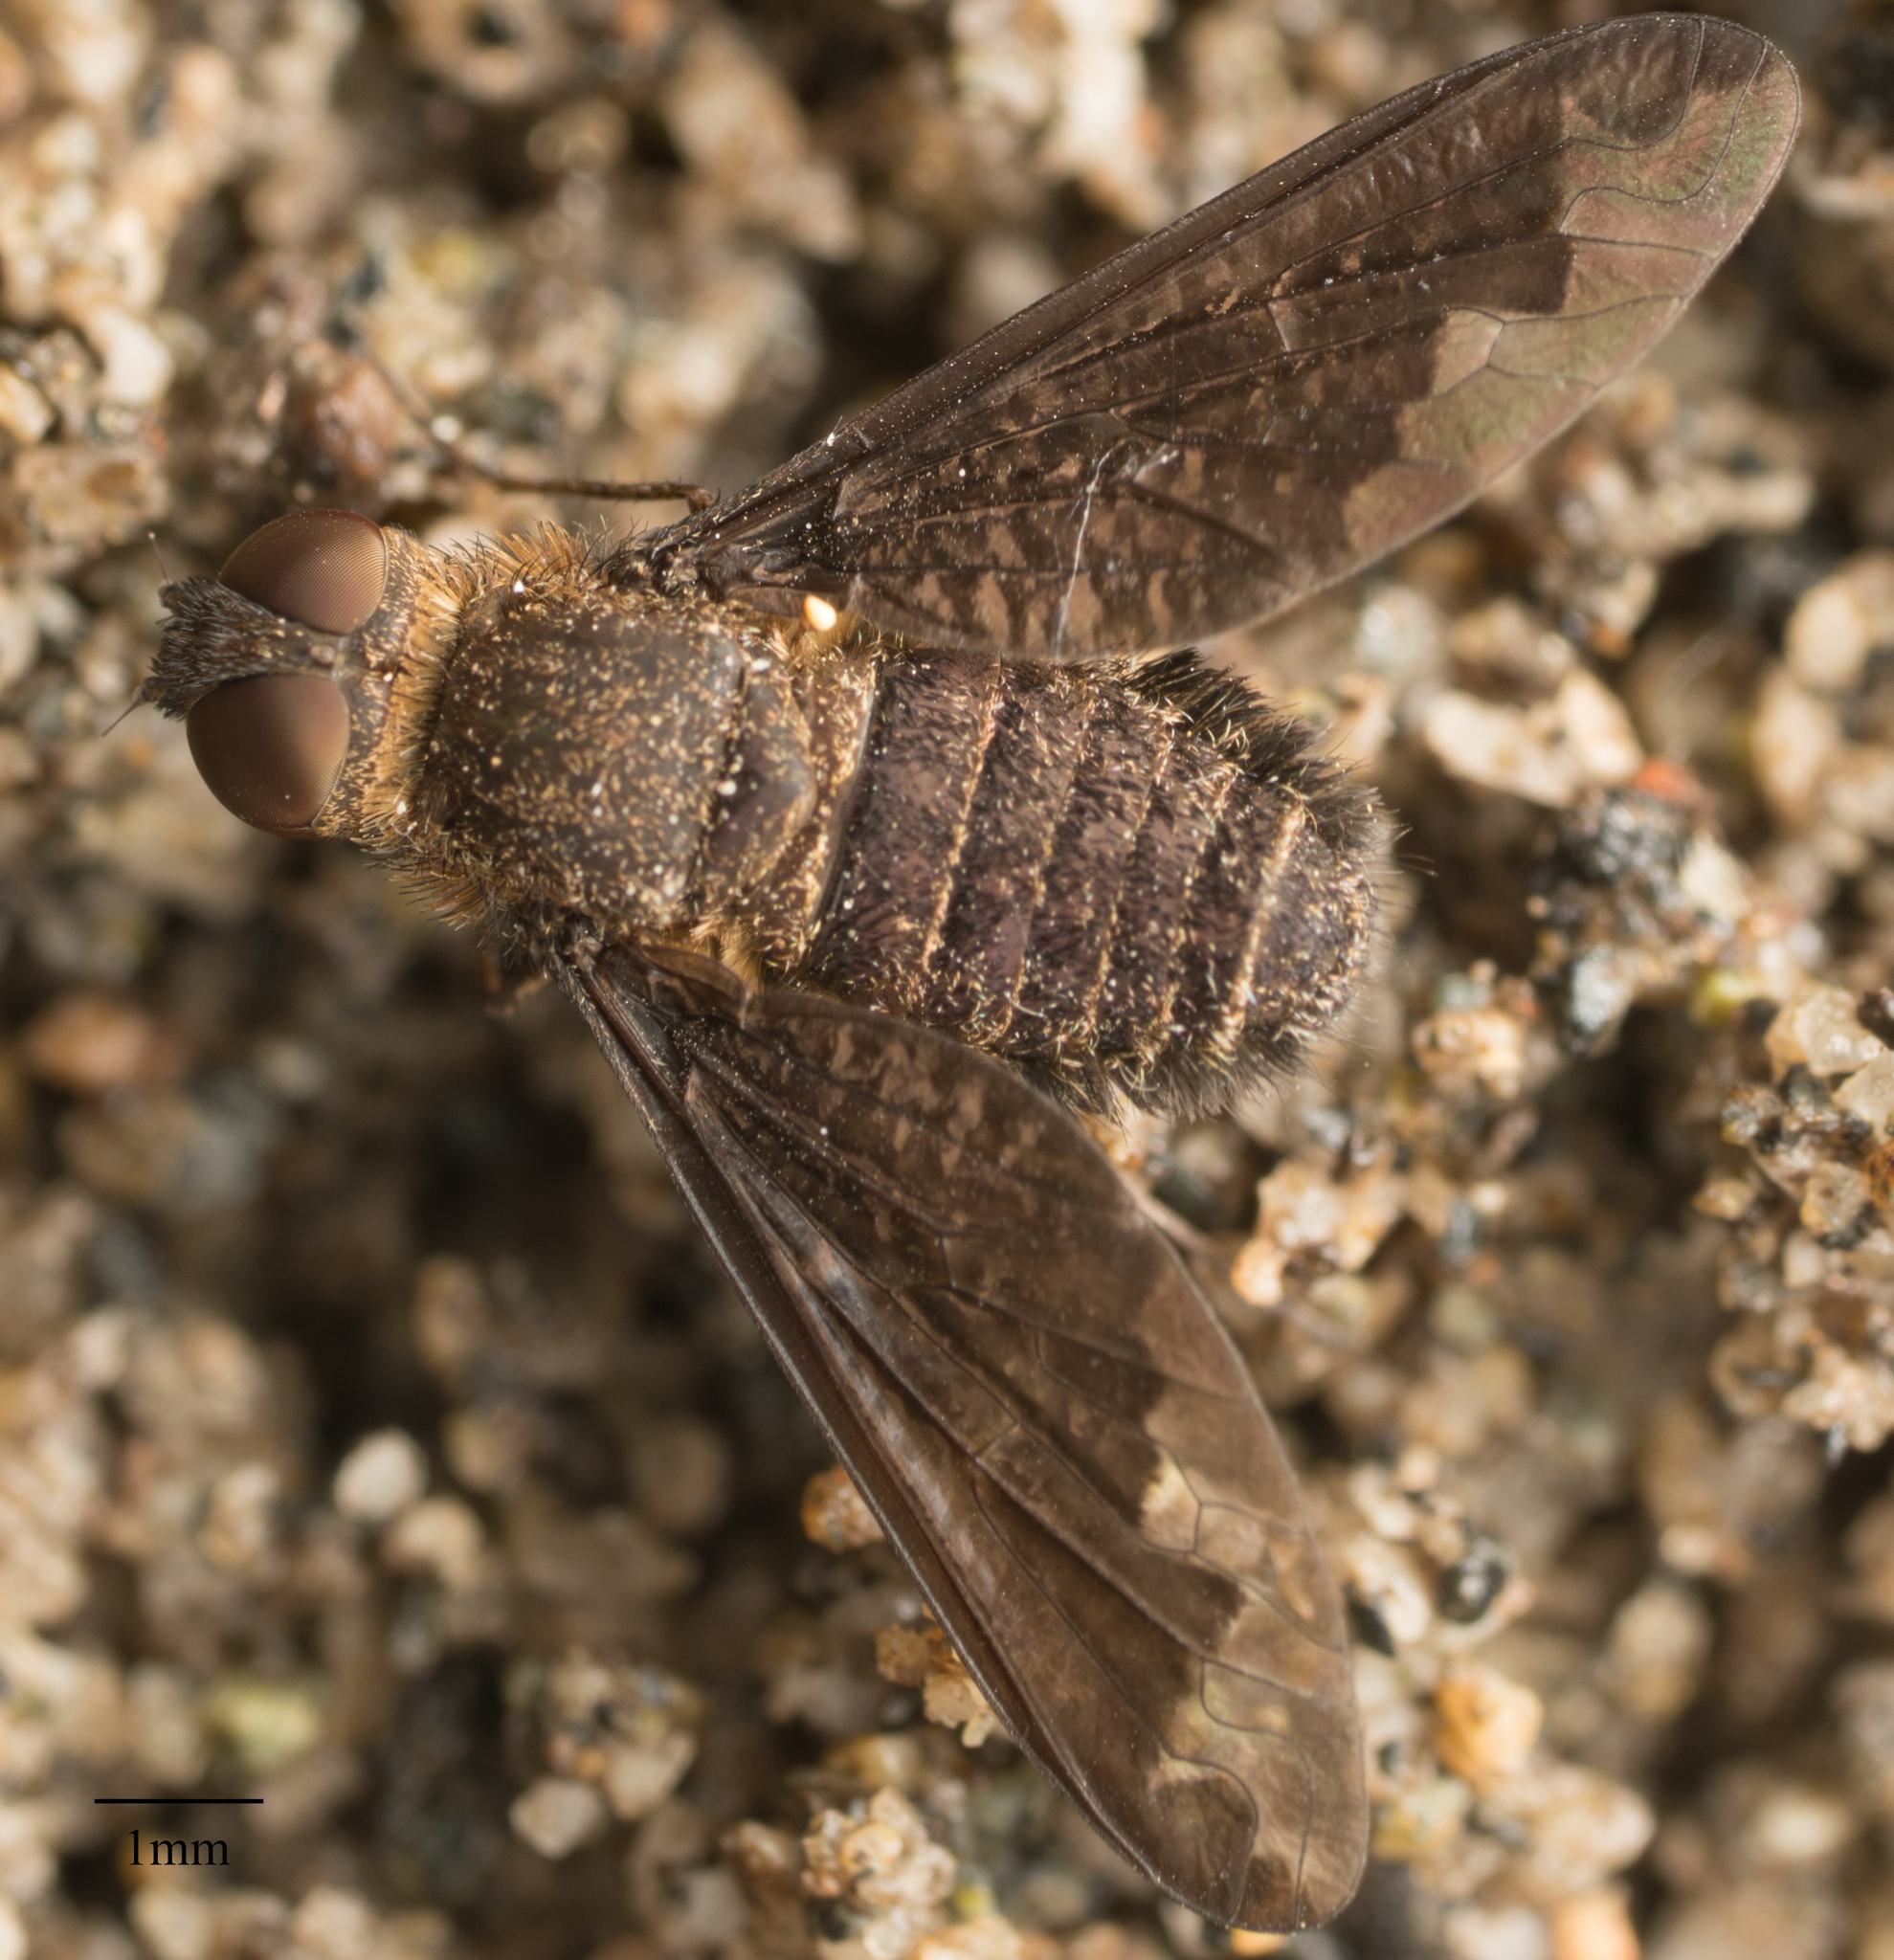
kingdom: Animalia
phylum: Arthropoda
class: Insecta
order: Diptera
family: Bombyliidae
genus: Hemipenthes
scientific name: Hemipenthes sinuosus
